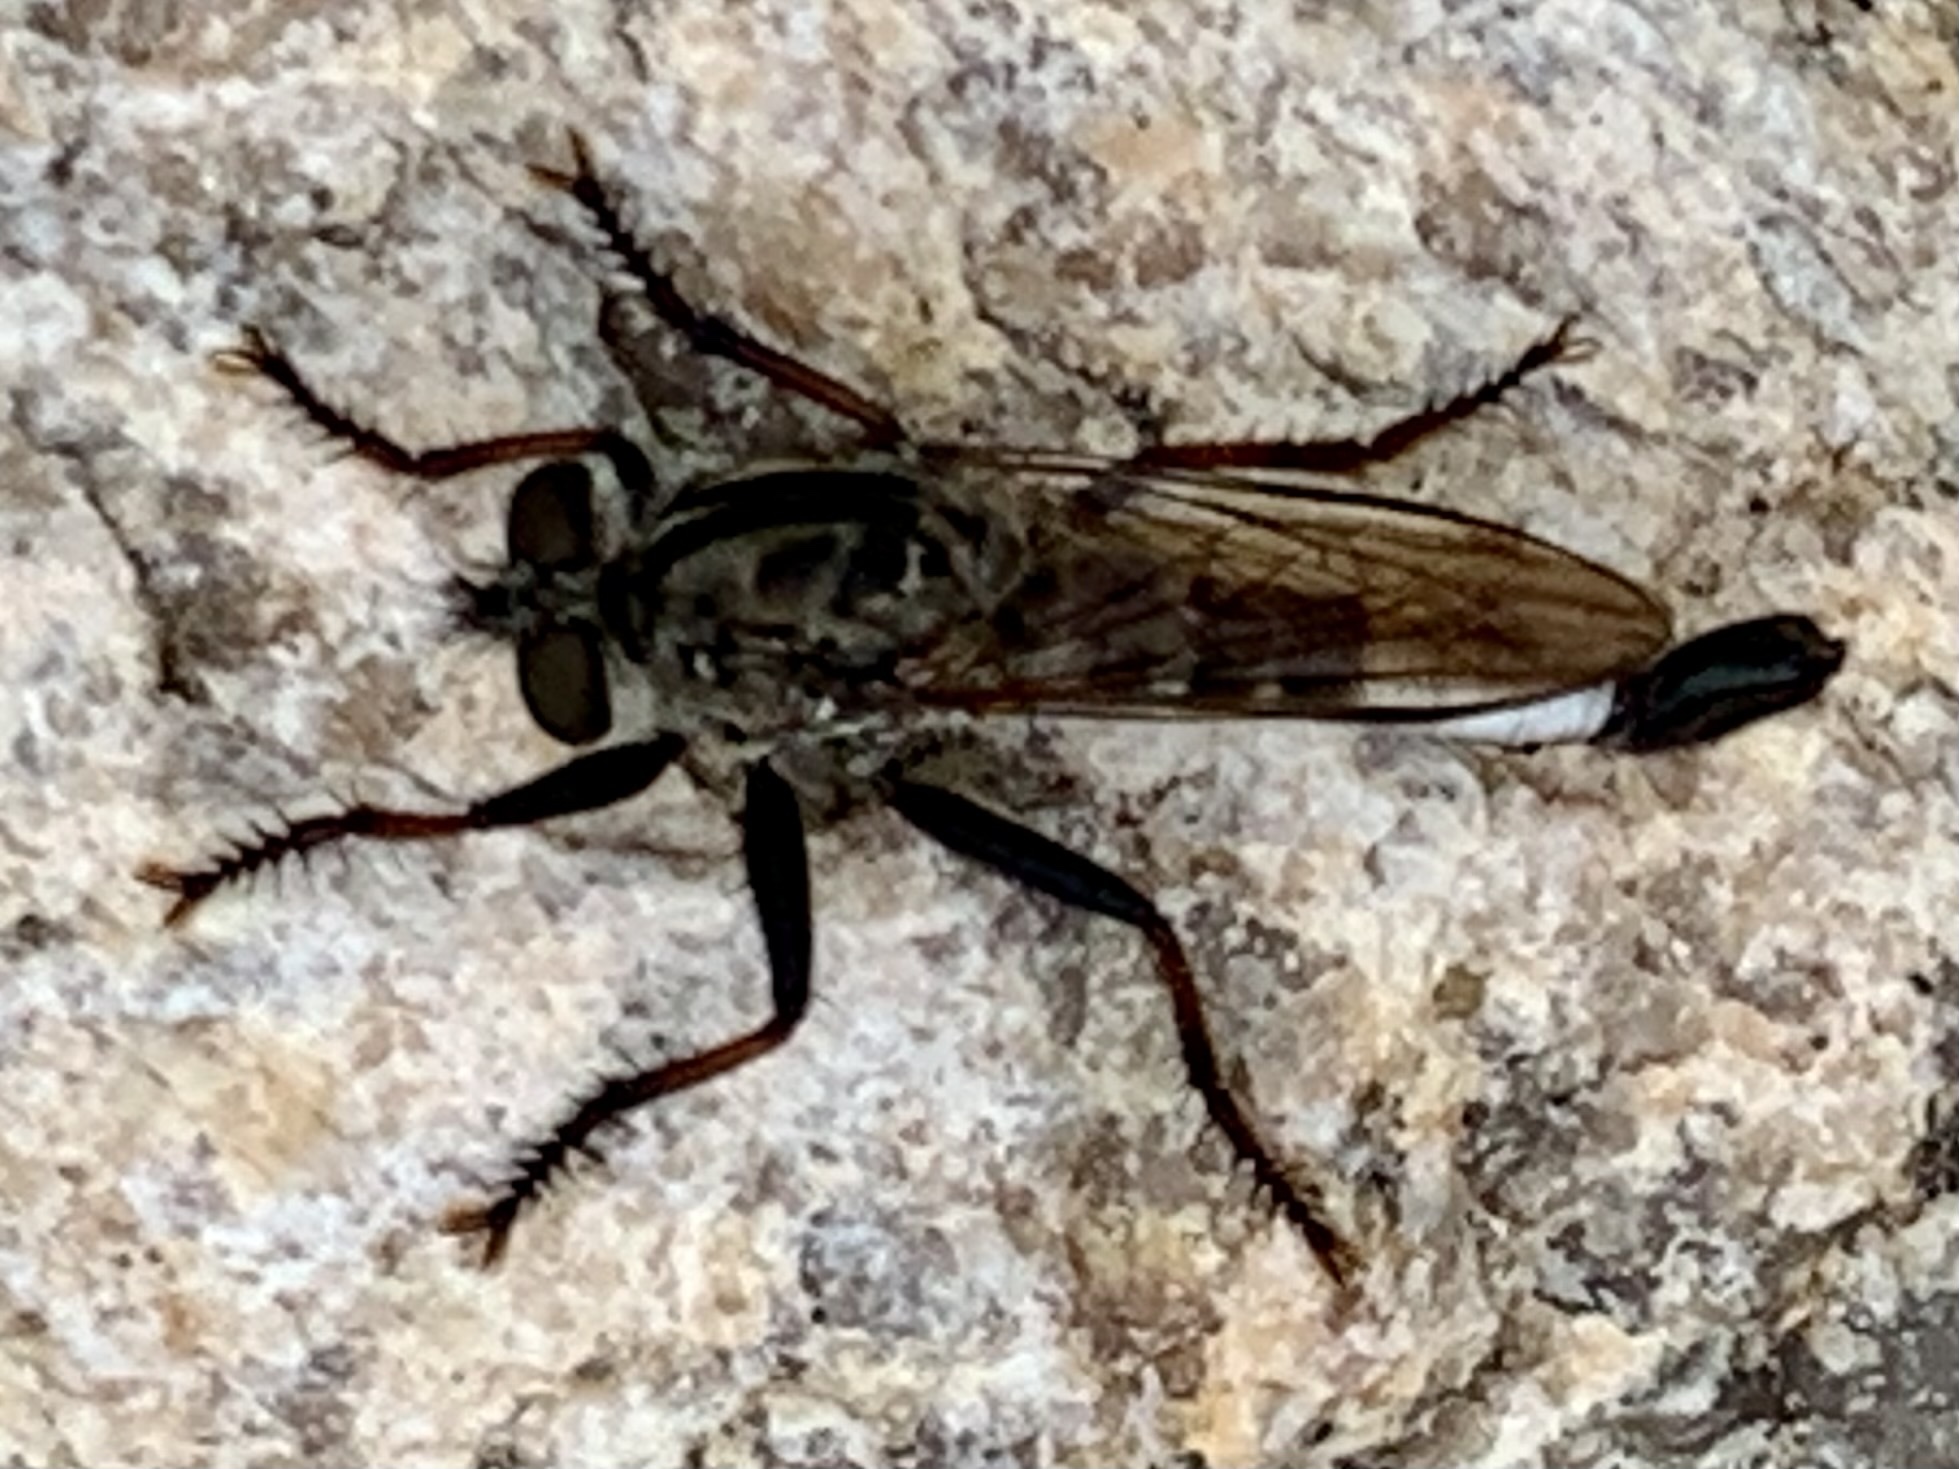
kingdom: Animalia
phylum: Arthropoda
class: Insecta
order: Diptera
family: Asilidae
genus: Efferia
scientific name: Efferia aestuans
